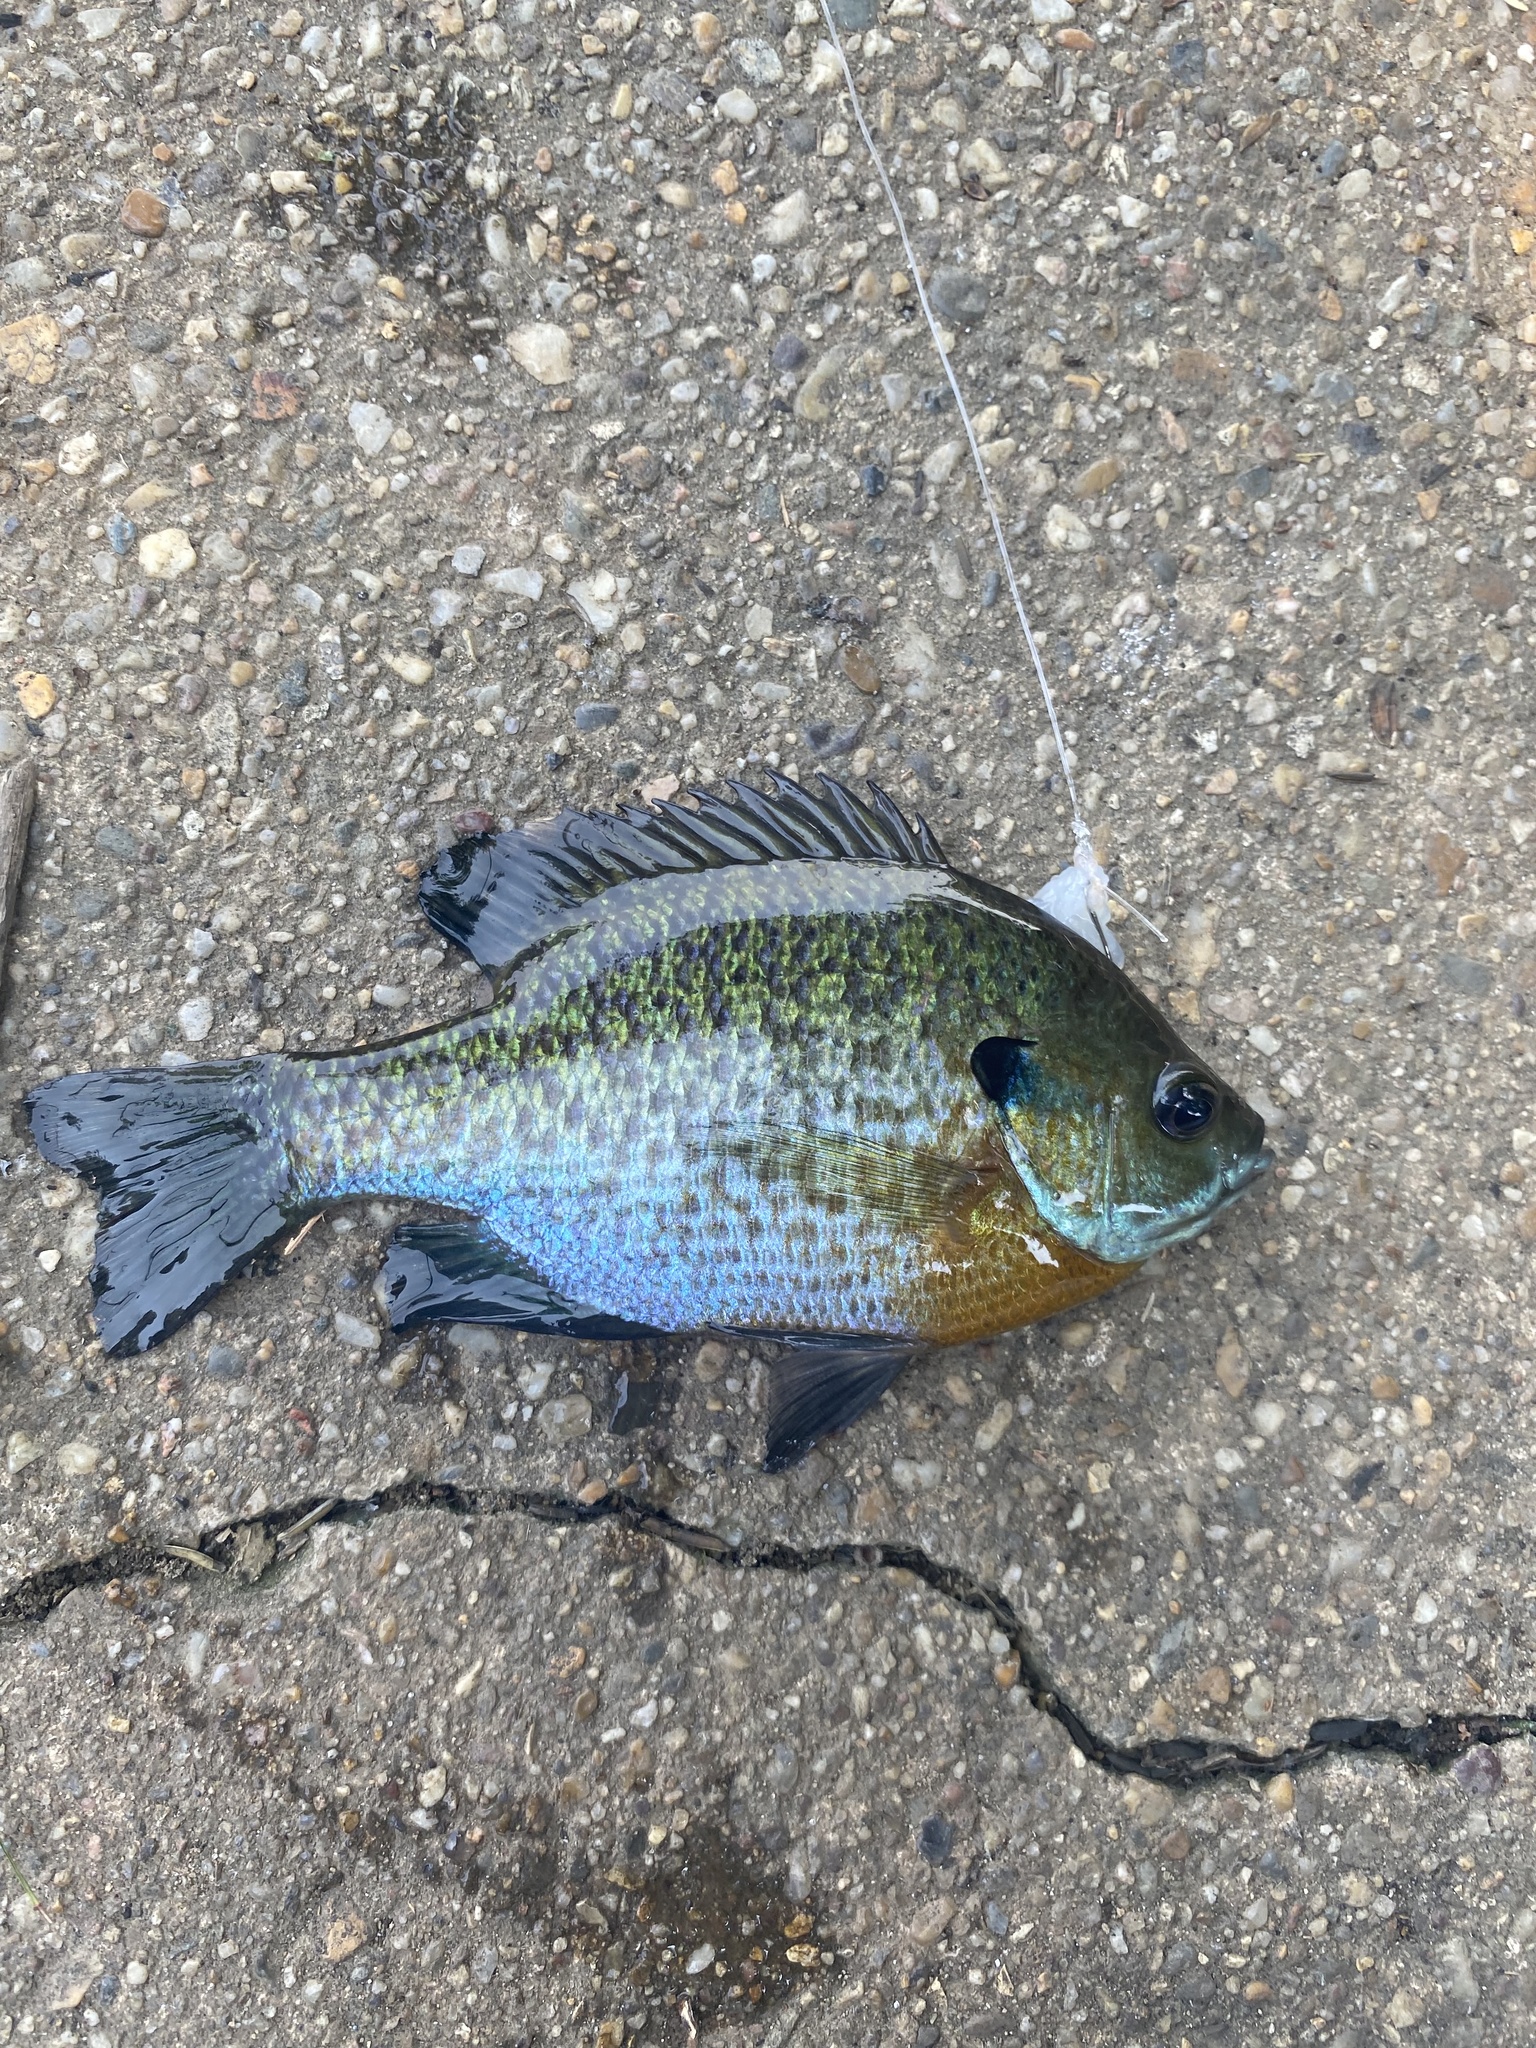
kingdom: Animalia
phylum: Chordata
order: Perciformes
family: Centrarchidae
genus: Lepomis
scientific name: Lepomis macrochirus
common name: Bluegill
